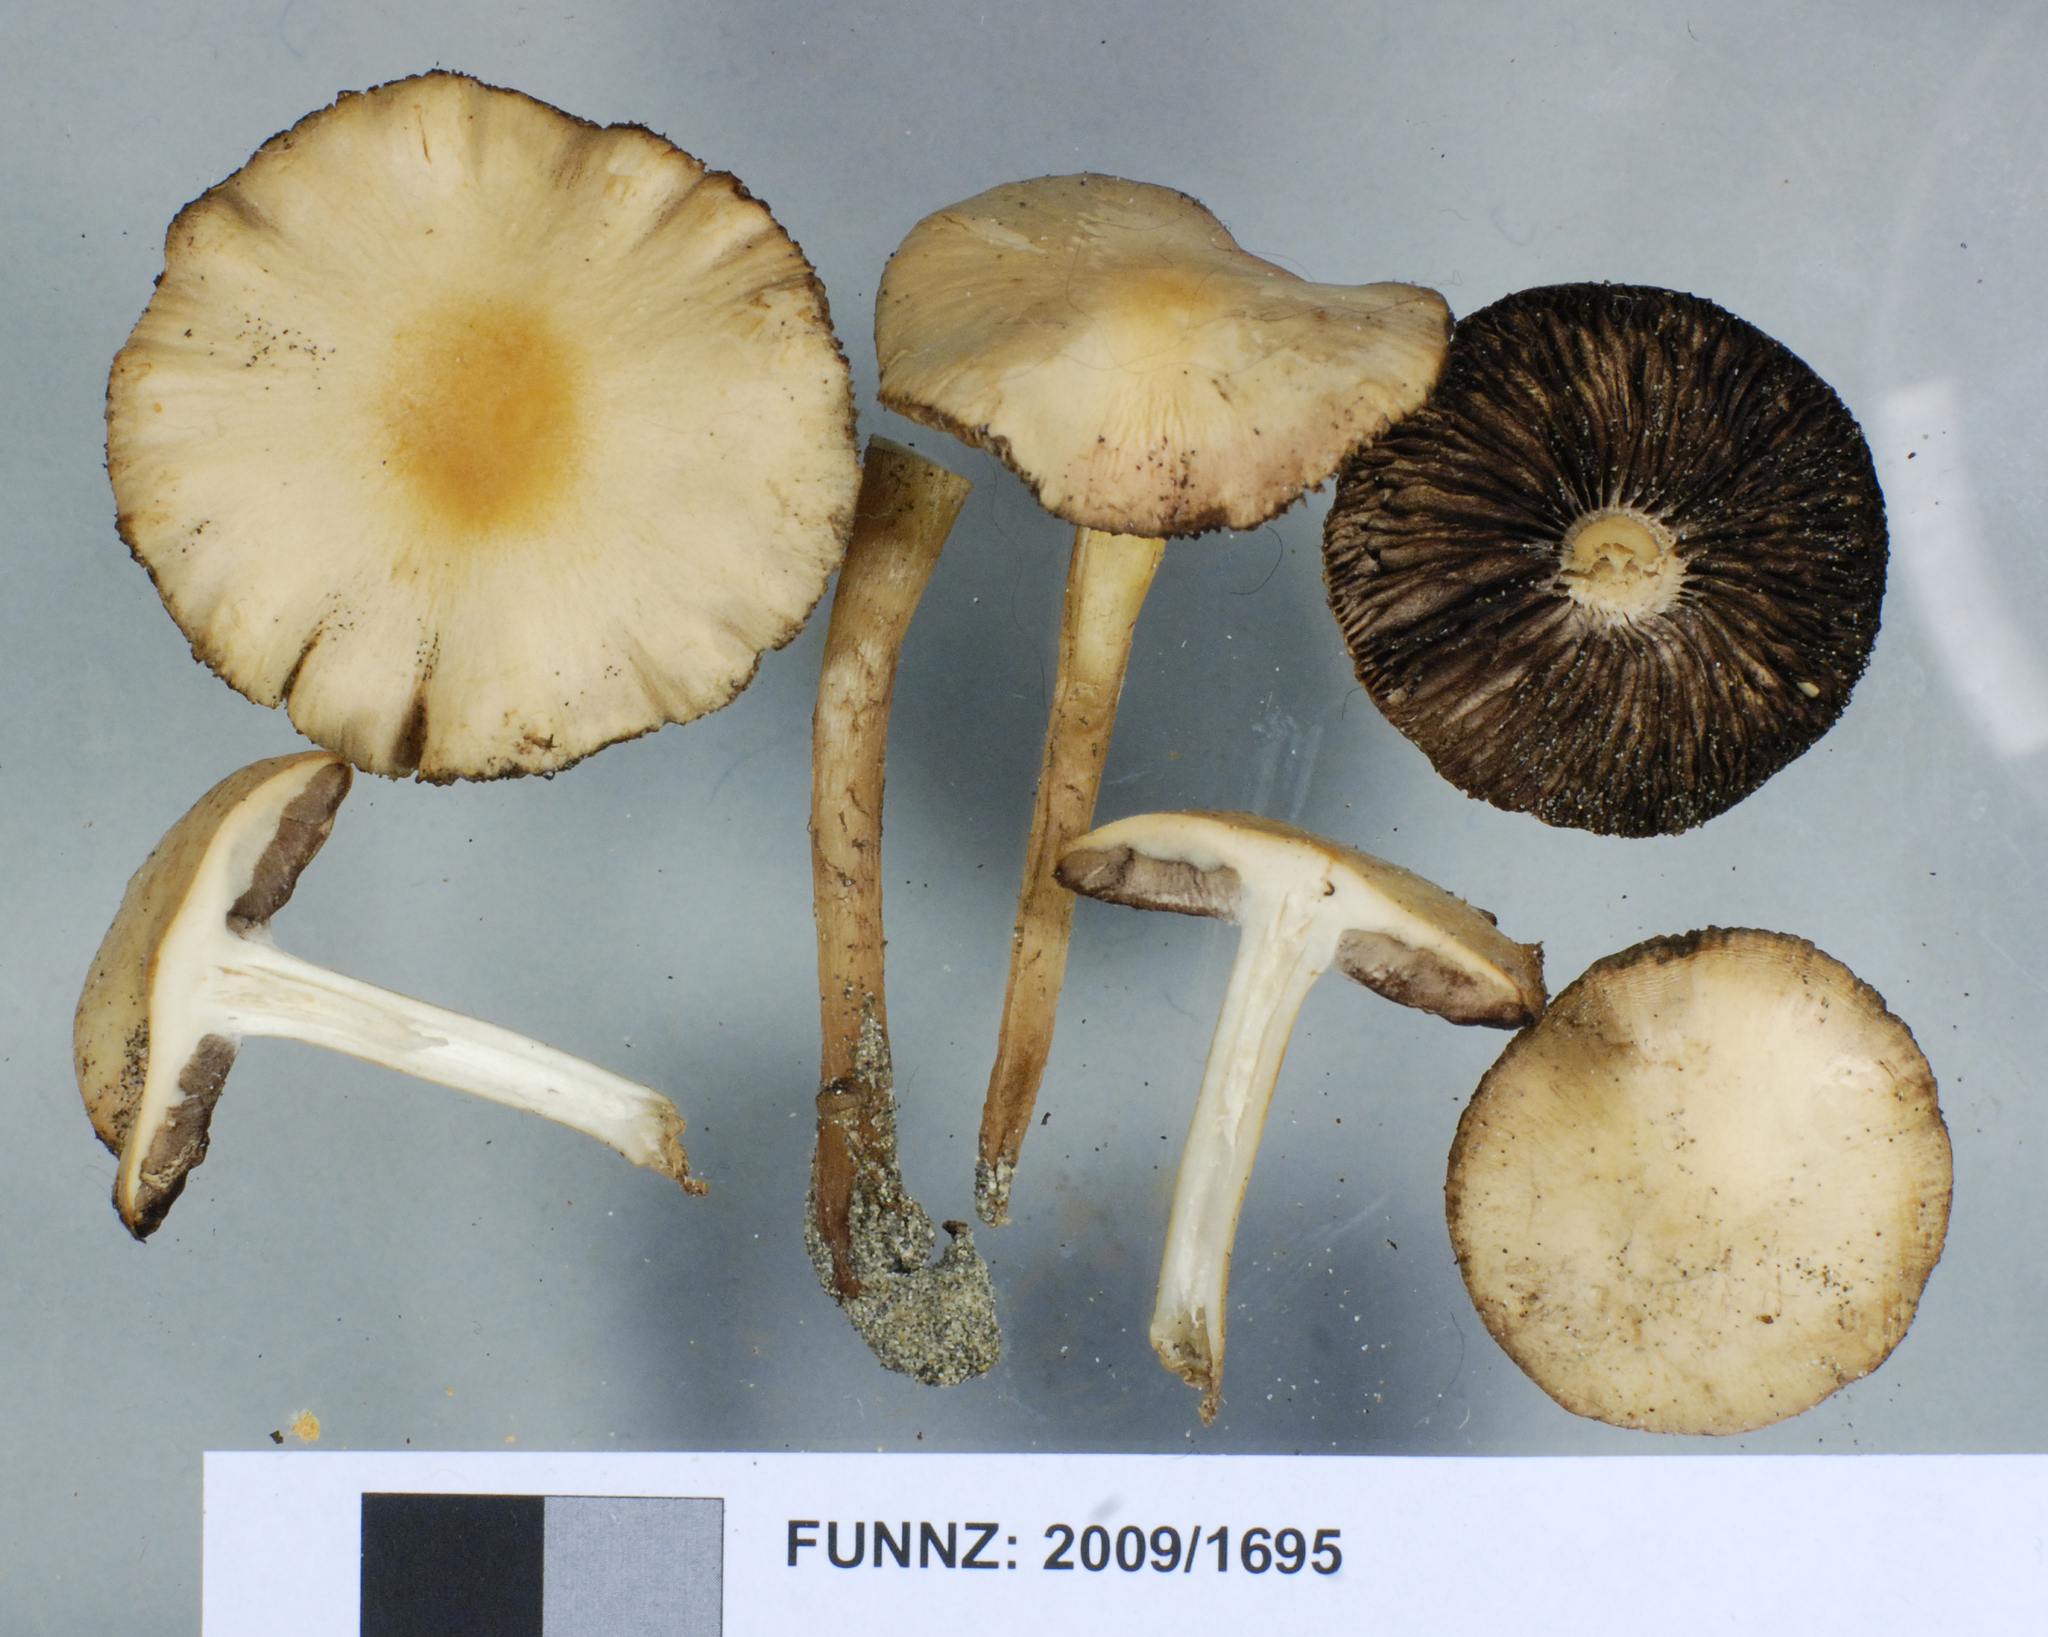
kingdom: Fungi
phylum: Basidiomycota
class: Agaricomycetes
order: Agaricales
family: Psathyrellaceae
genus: Psathyrella
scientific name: Psathyrella ammophila
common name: Dune brittlestem
